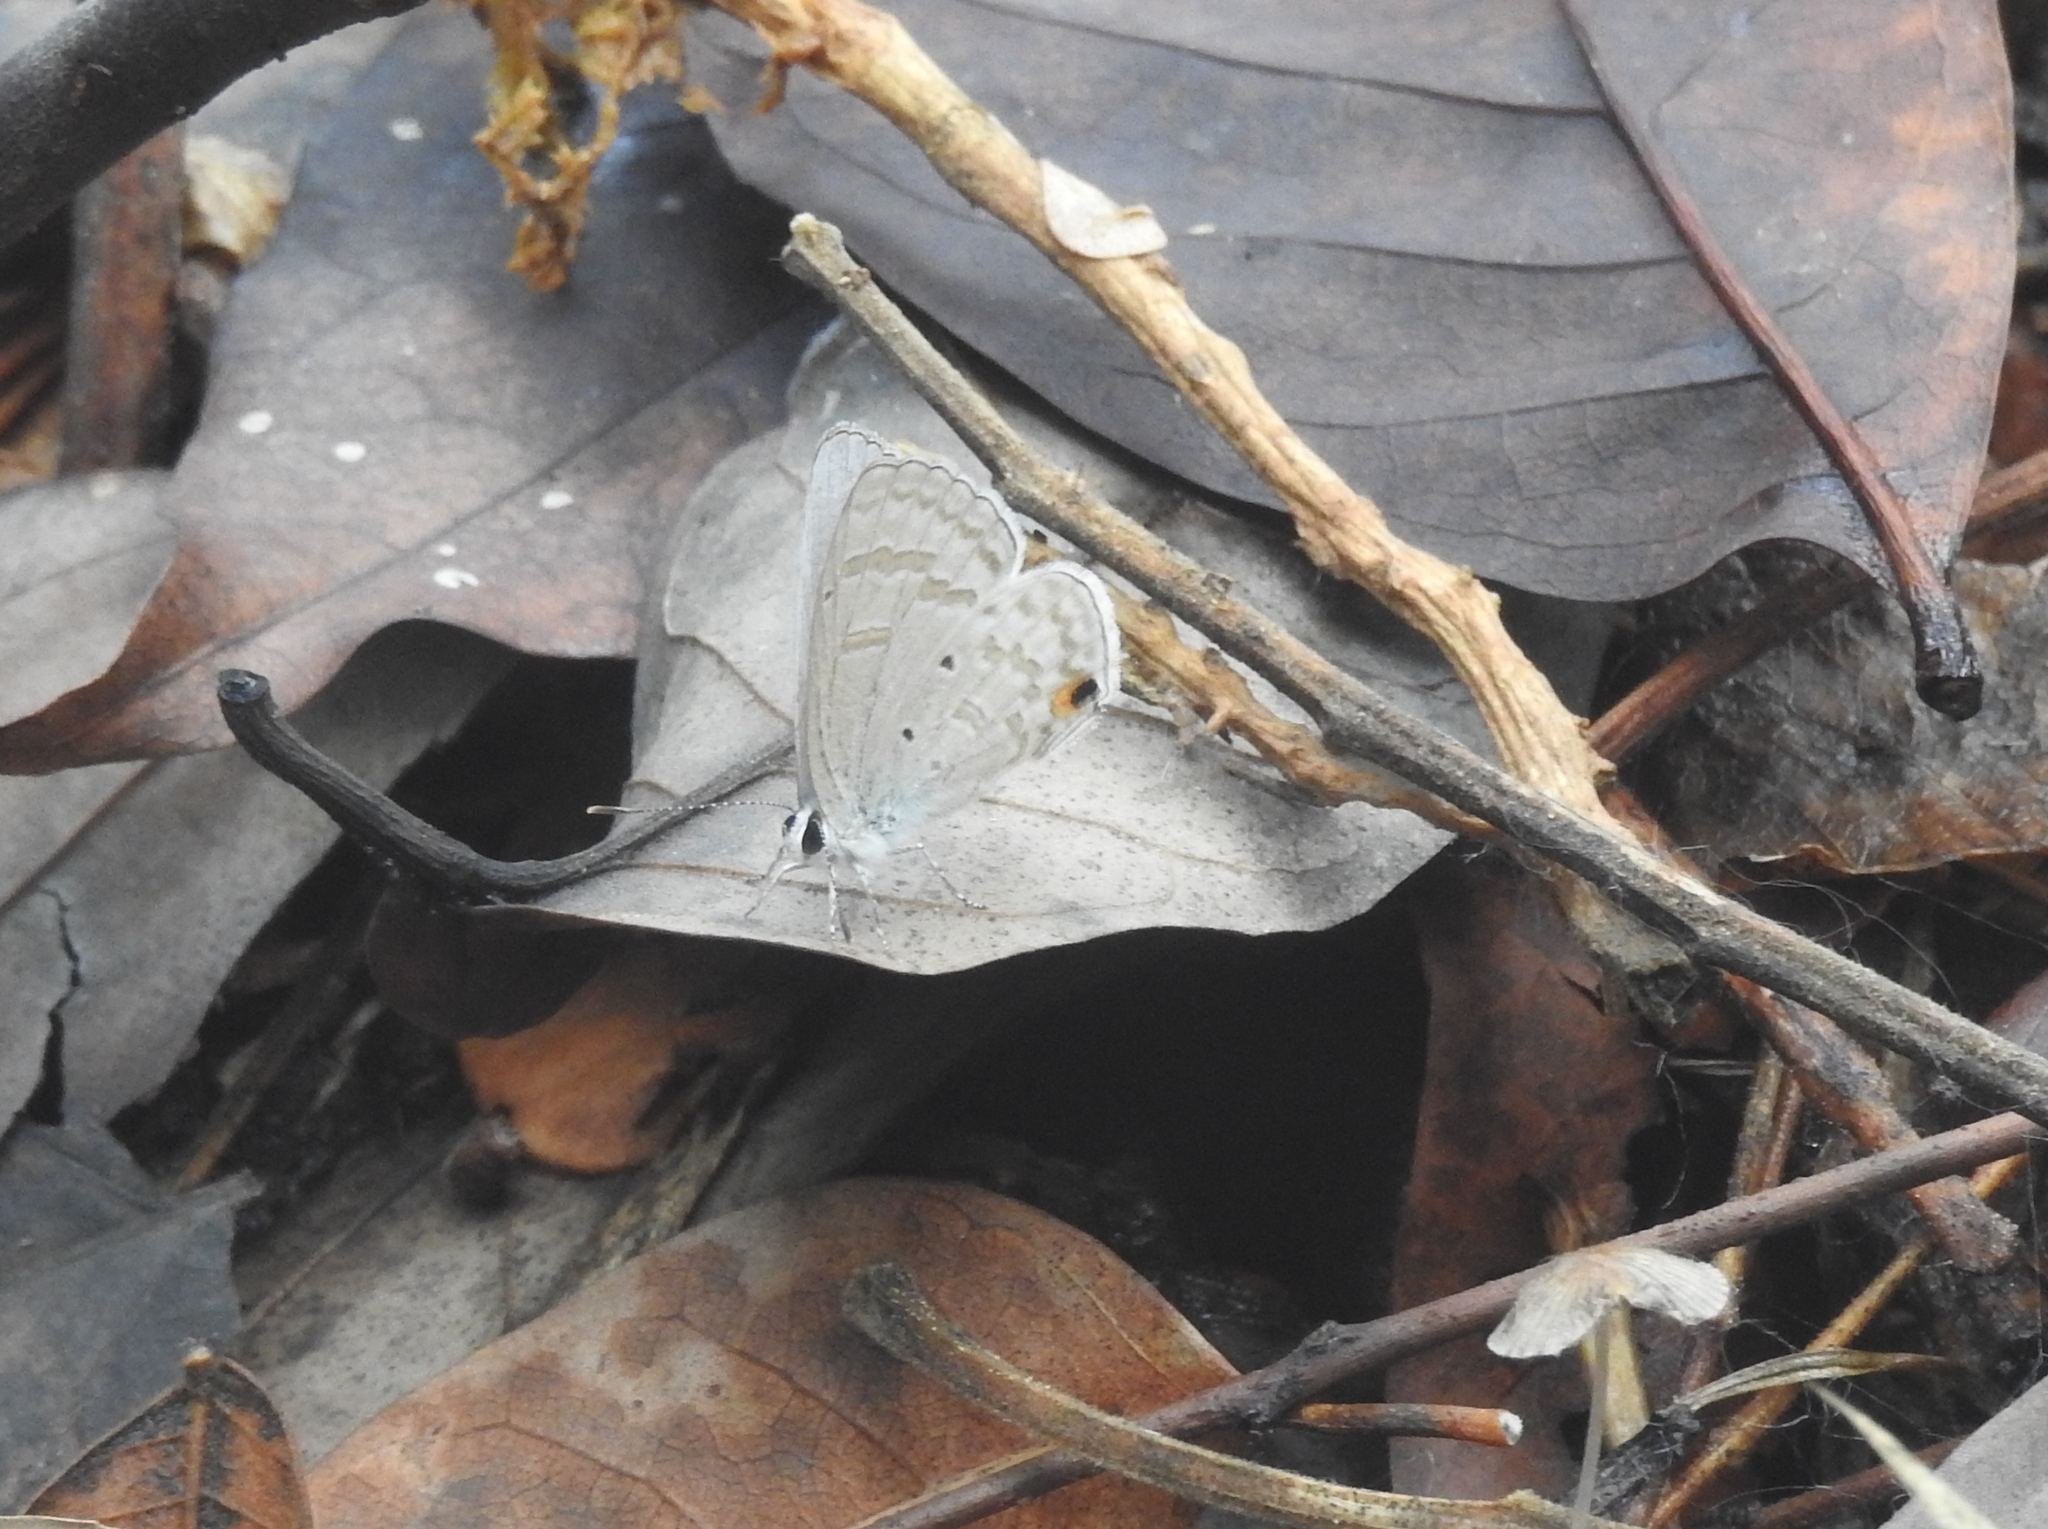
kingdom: Animalia
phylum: Arthropoda
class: Insecta
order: Lepidoptera
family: Lycaenidae
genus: Catochrysops
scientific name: Catochrysops panormus
